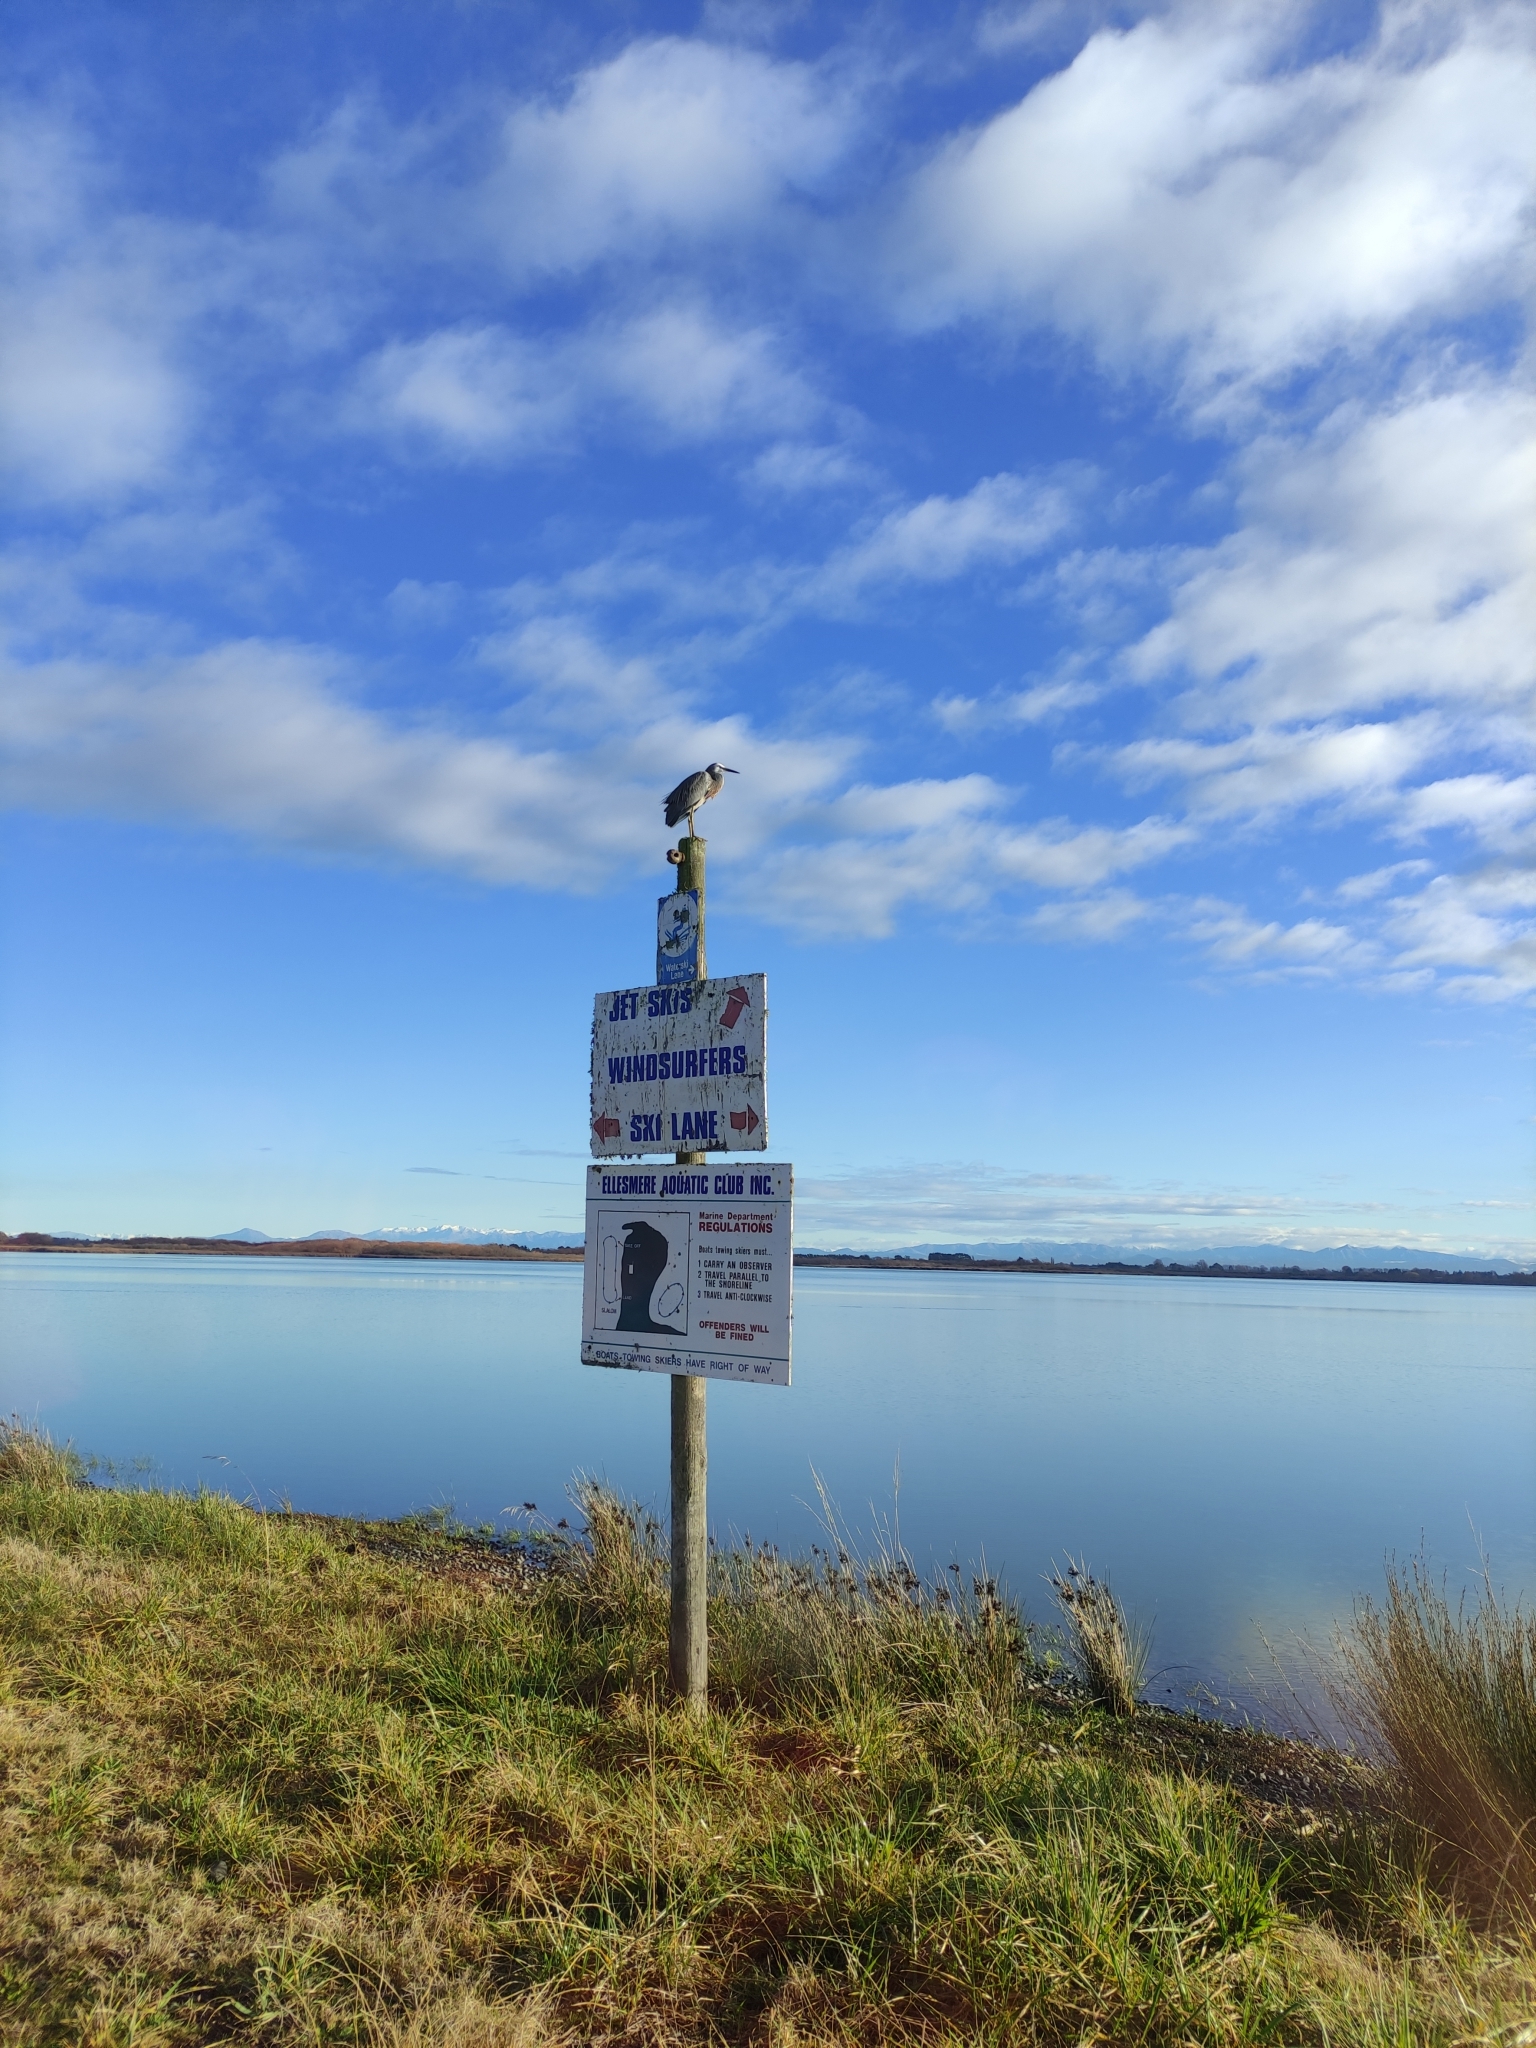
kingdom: Animalia
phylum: Chordata
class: Aves
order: Pelecaniformes
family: Ardeidae
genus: Egretta
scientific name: Egretta novaehollandiae
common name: White-faced heron
